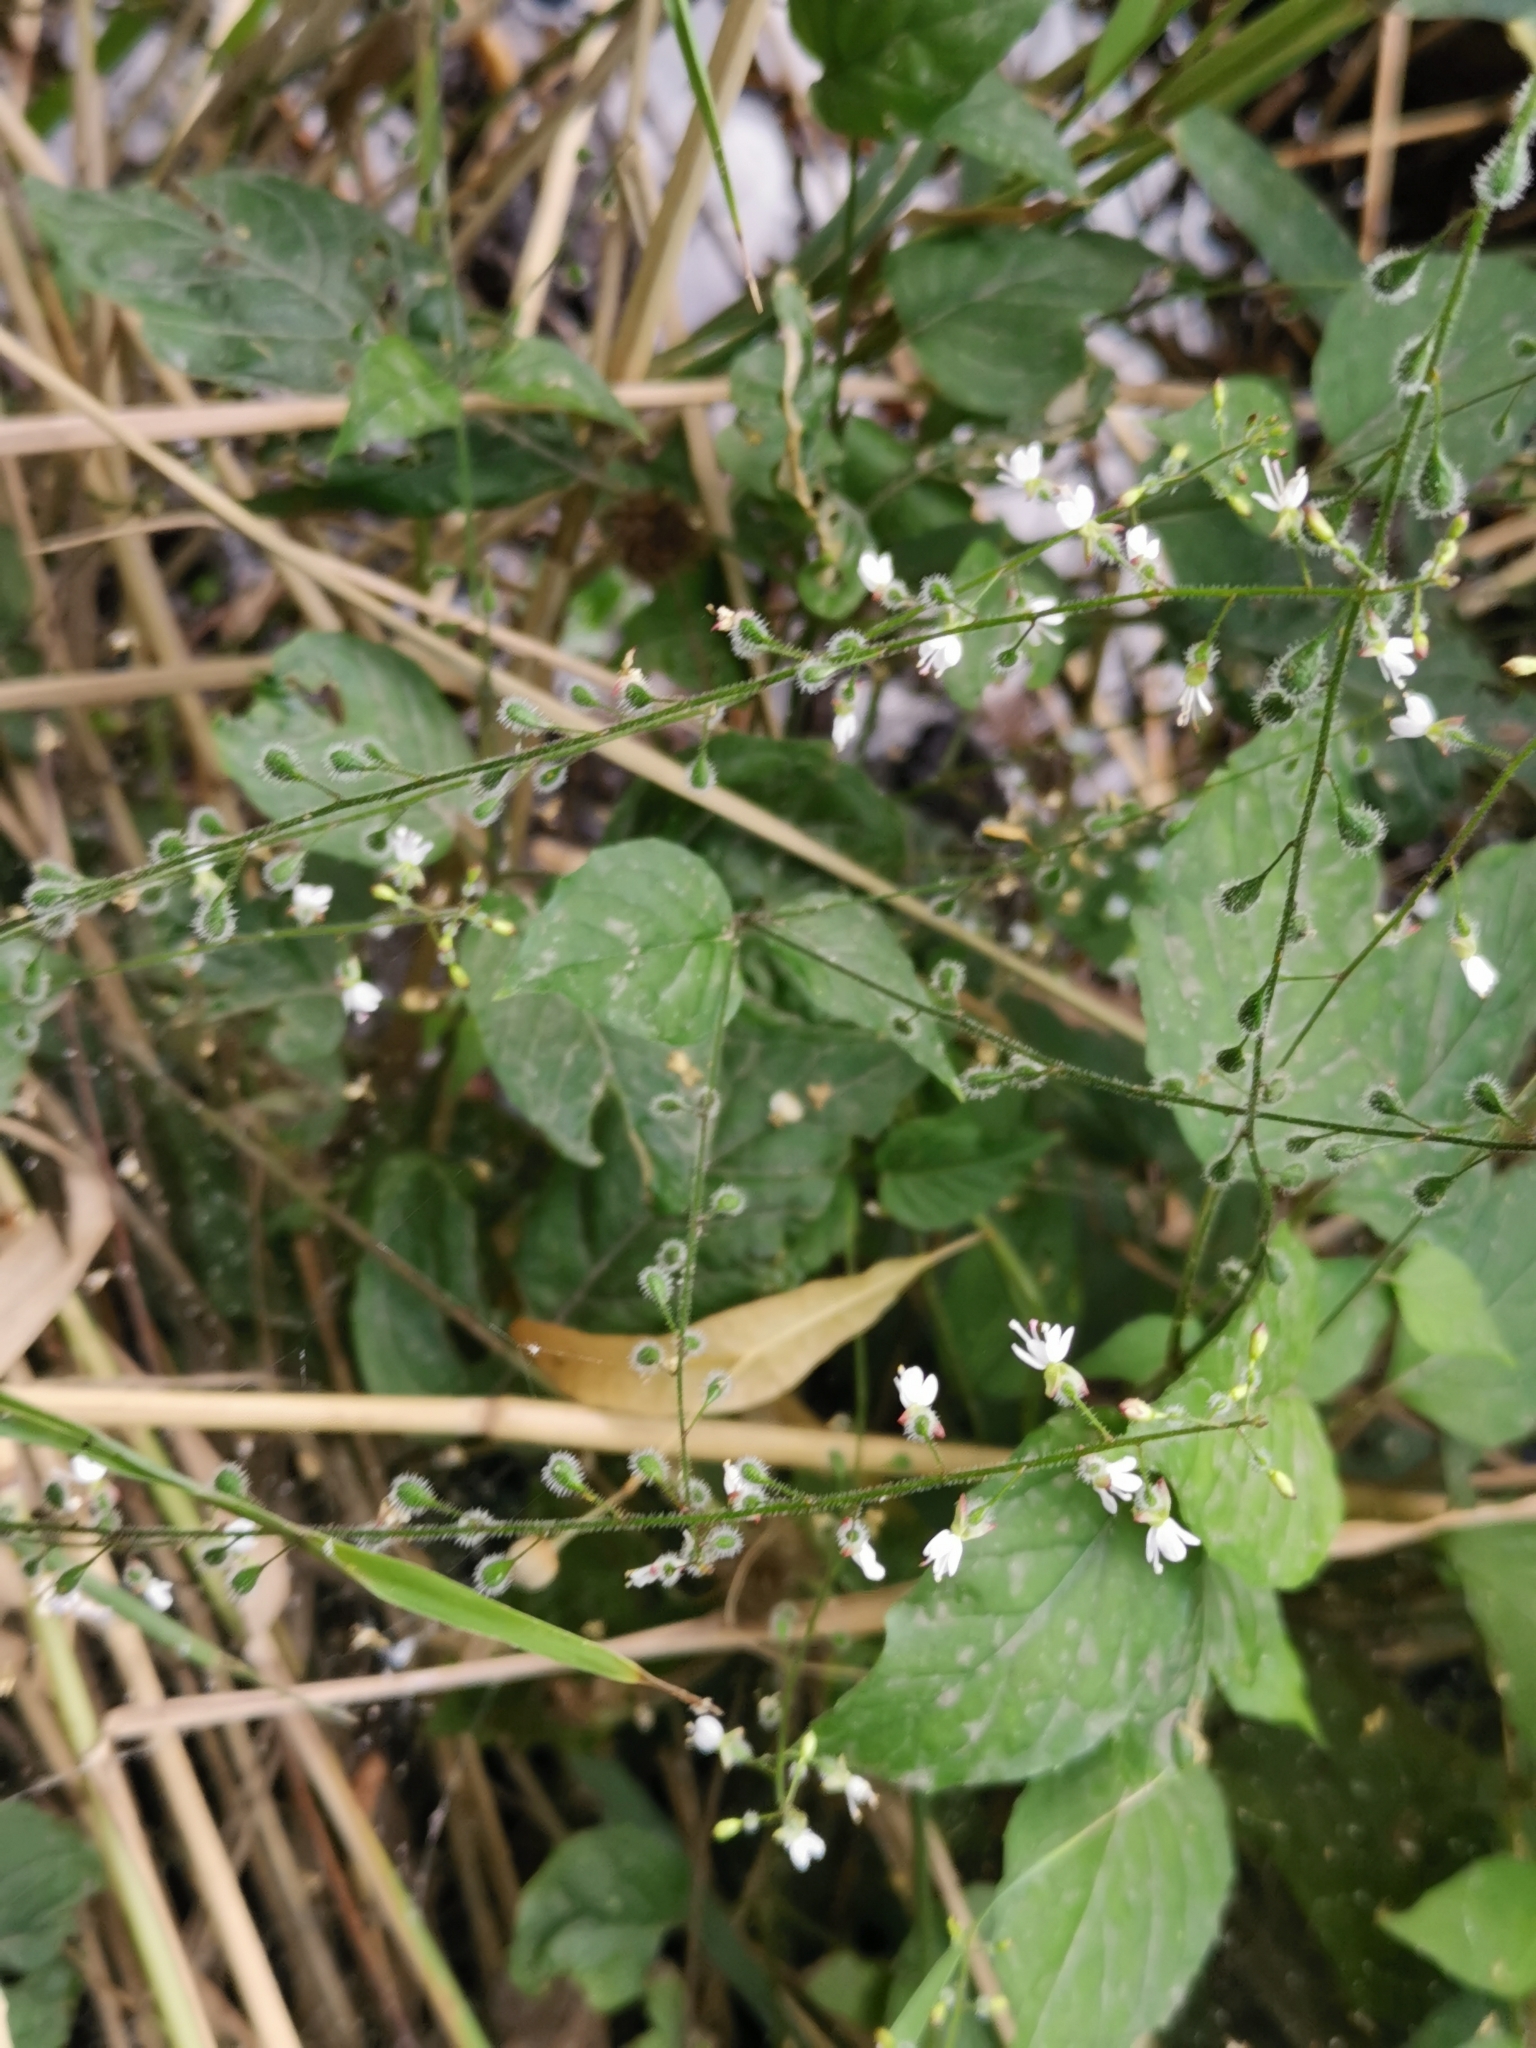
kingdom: Plantae
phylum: Tracheophyta
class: Magnoliopsida
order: Myrtales
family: Onagraceae
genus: Circaea
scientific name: Circaea lutetiana
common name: Enchanter's-nightshade
